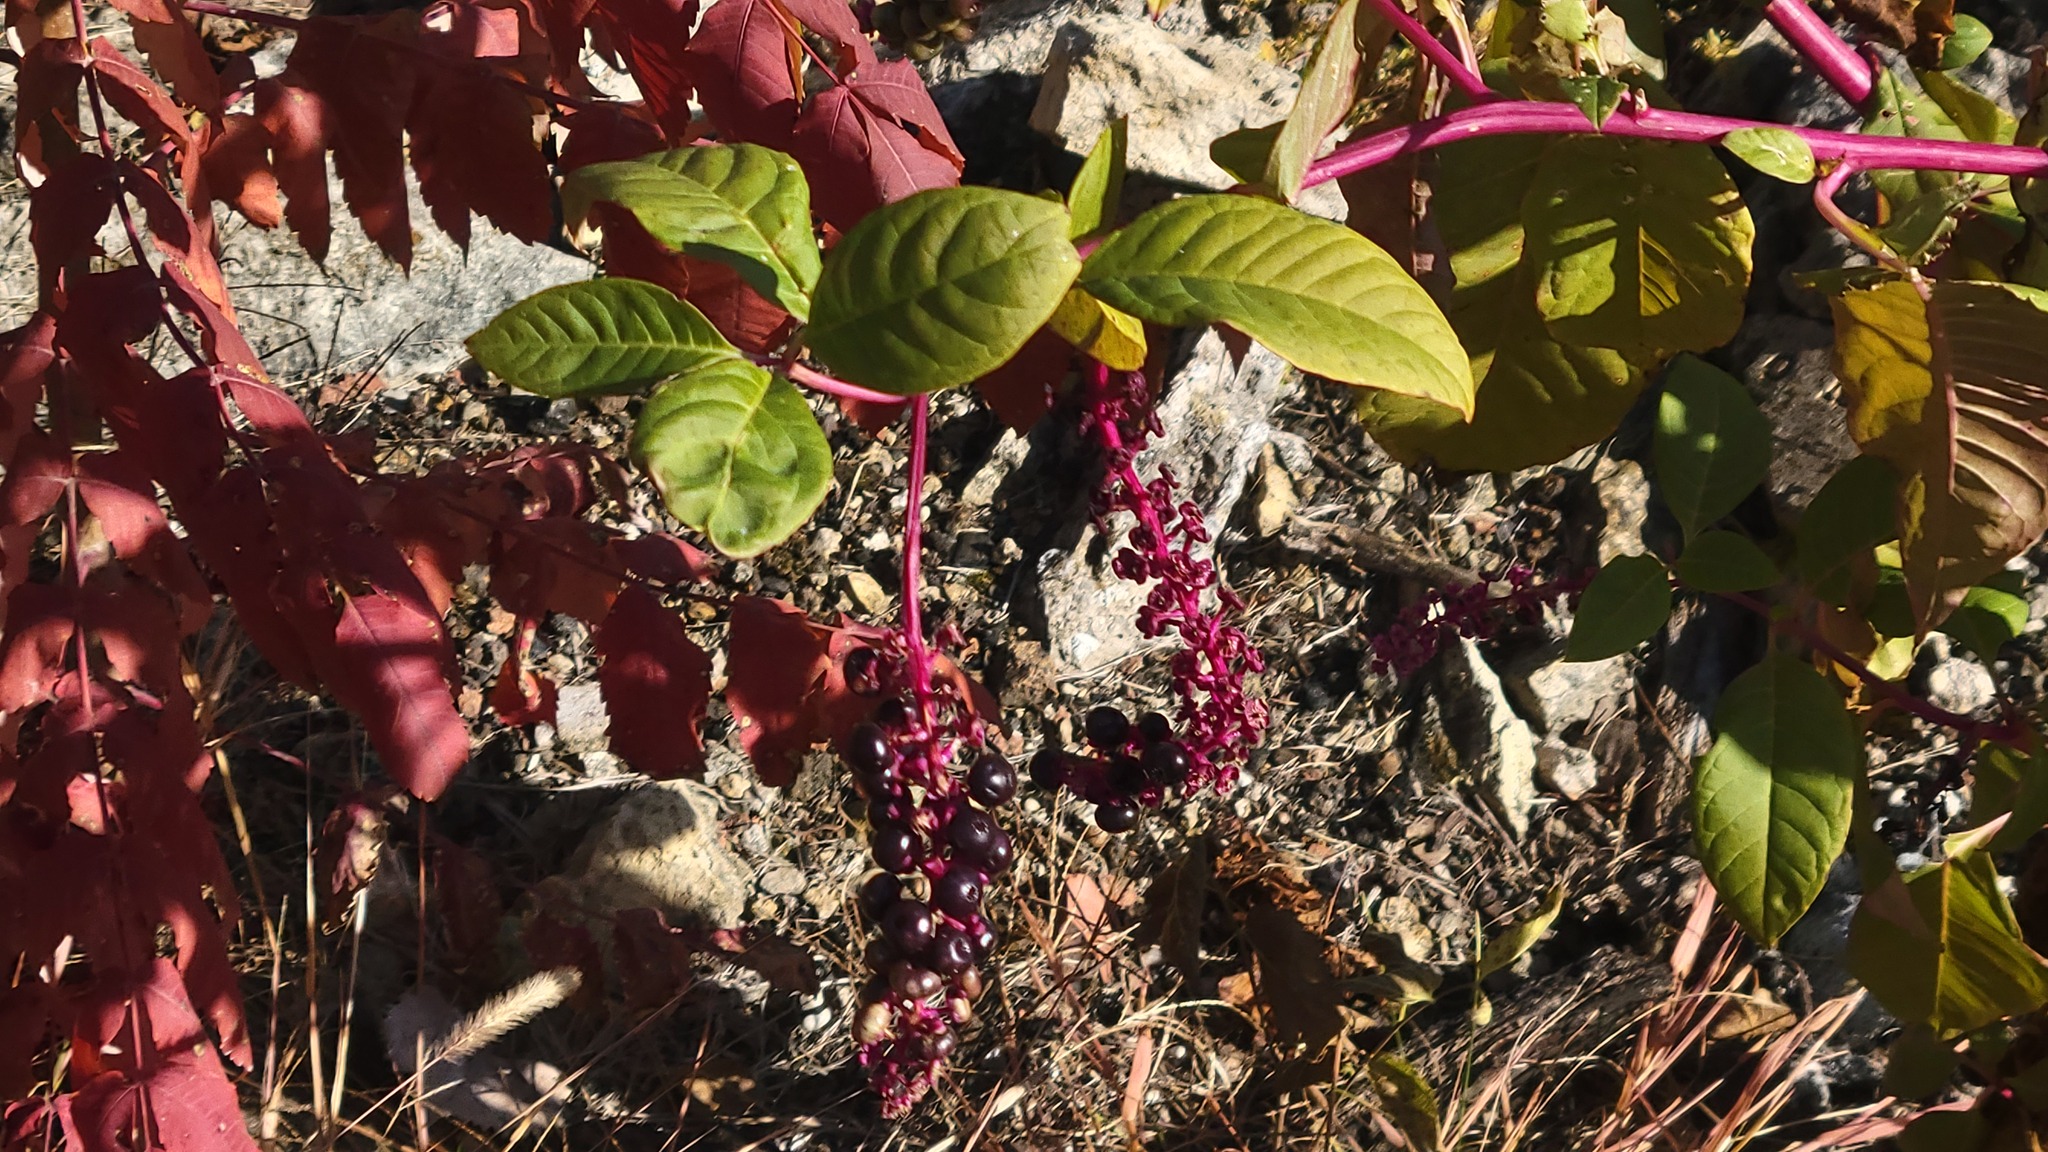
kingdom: Plantae
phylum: Tracheophyta
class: Magnoliopsida
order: Caryophyllales
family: Phytolaccaceae
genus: Phytolacca
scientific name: Phytolacca americana
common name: American pokeweed
